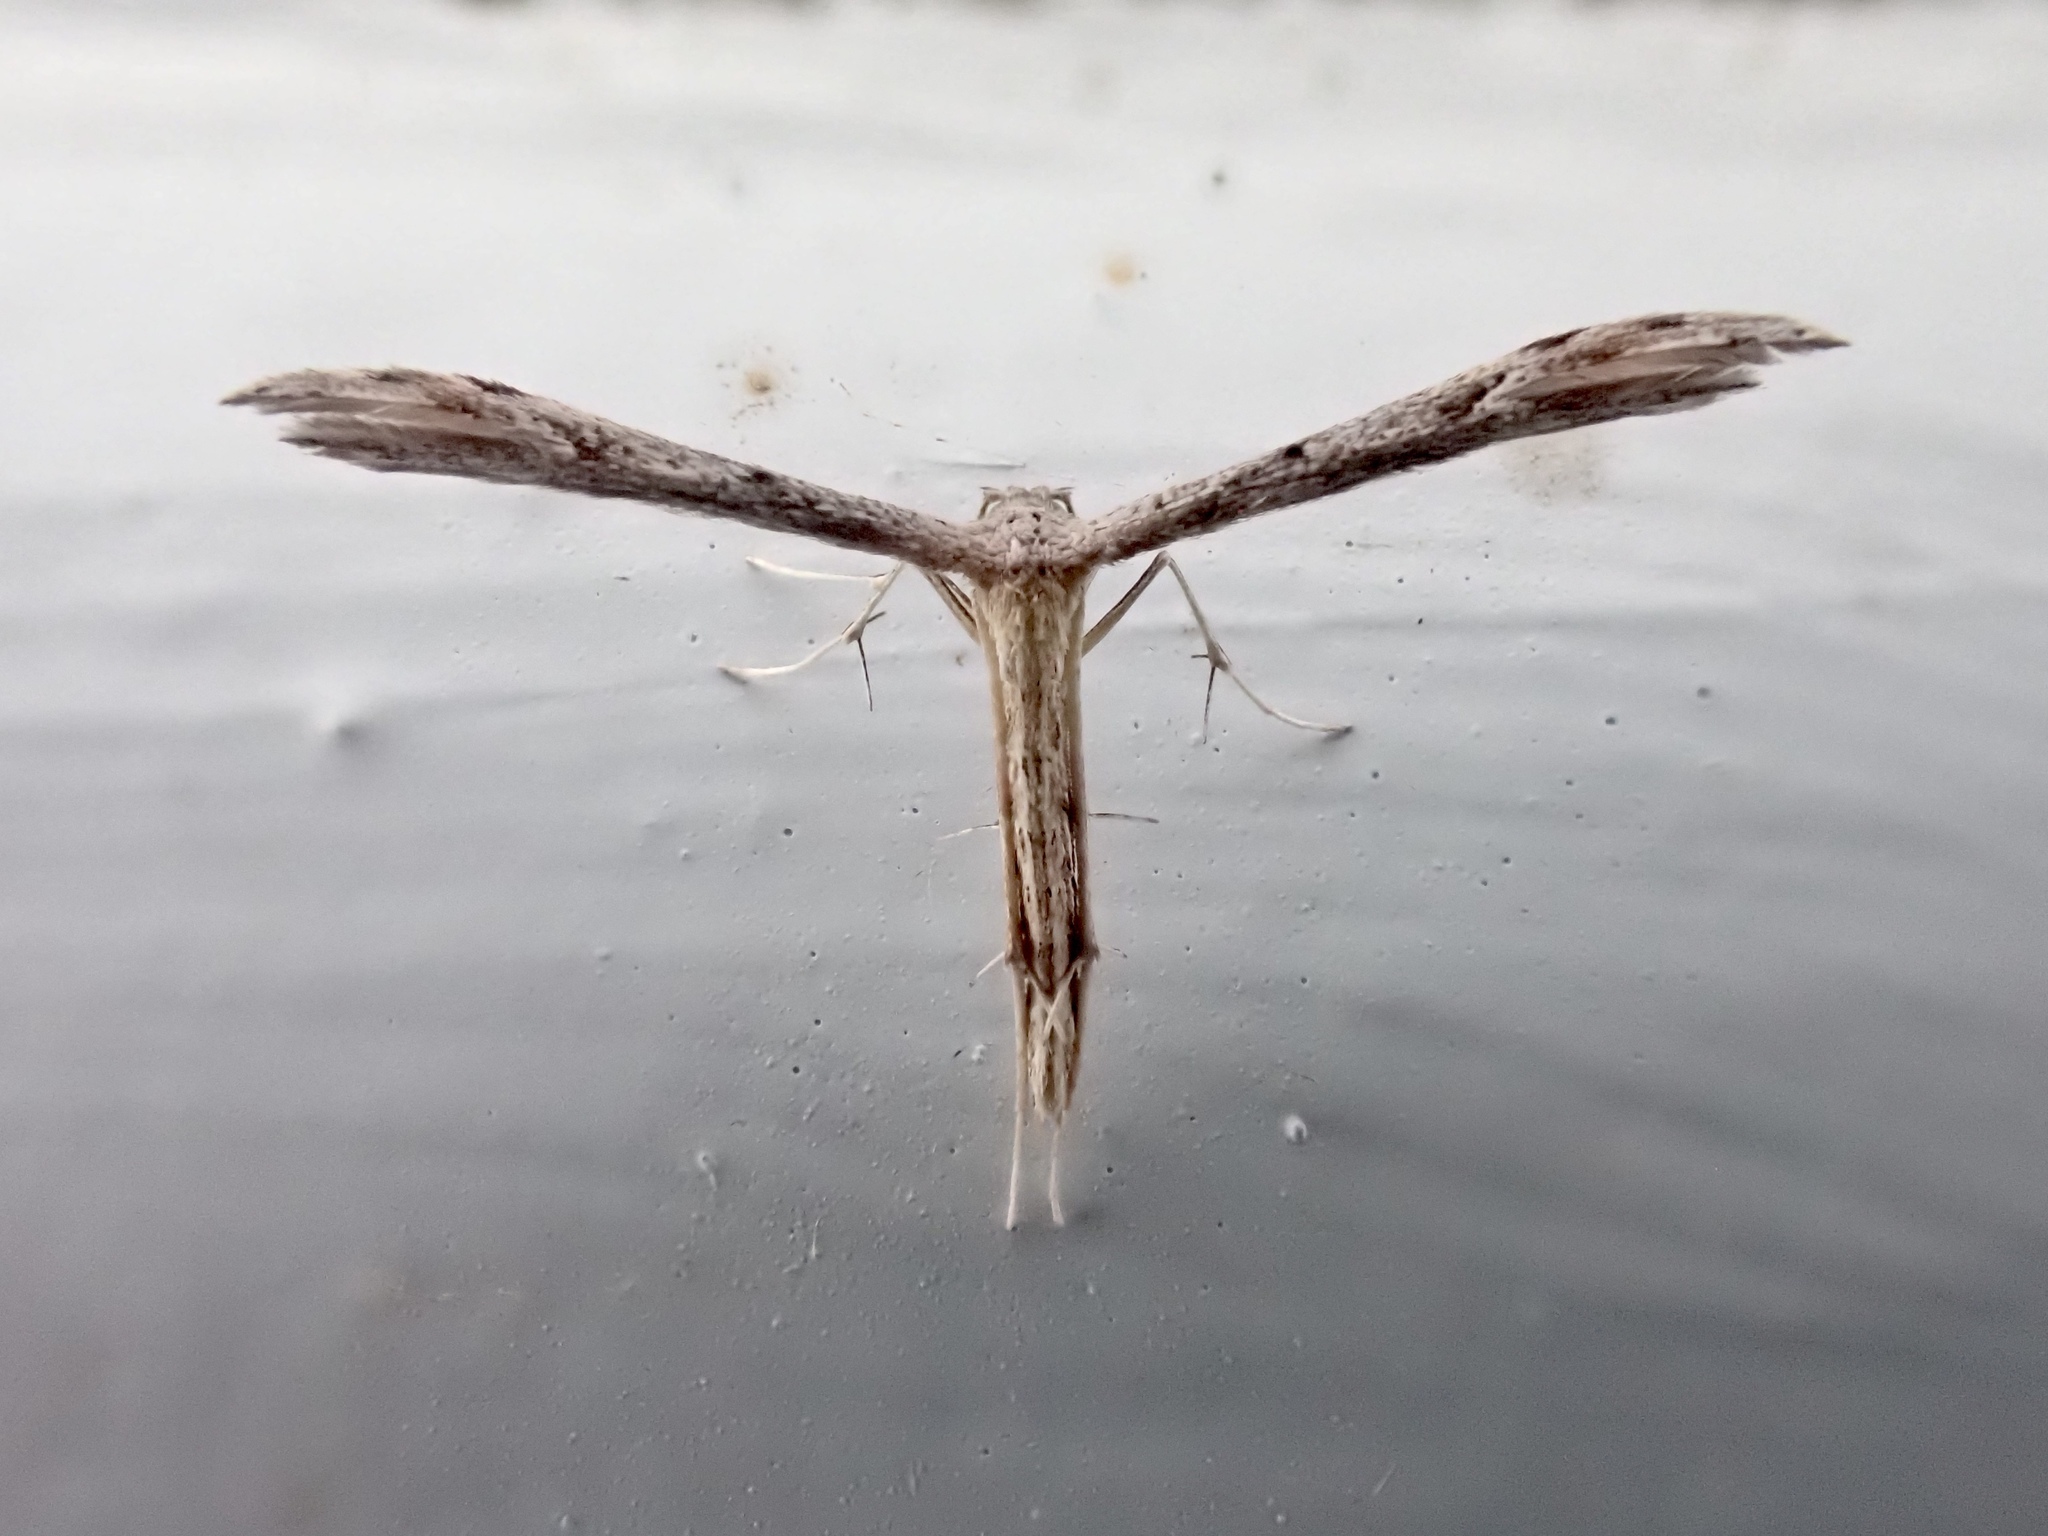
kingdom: Animalia
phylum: Arthropoda
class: Insecta
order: Lepidoptera
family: Pterophoridae
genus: Pselnophorus
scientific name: Pselnophorus belfragei
